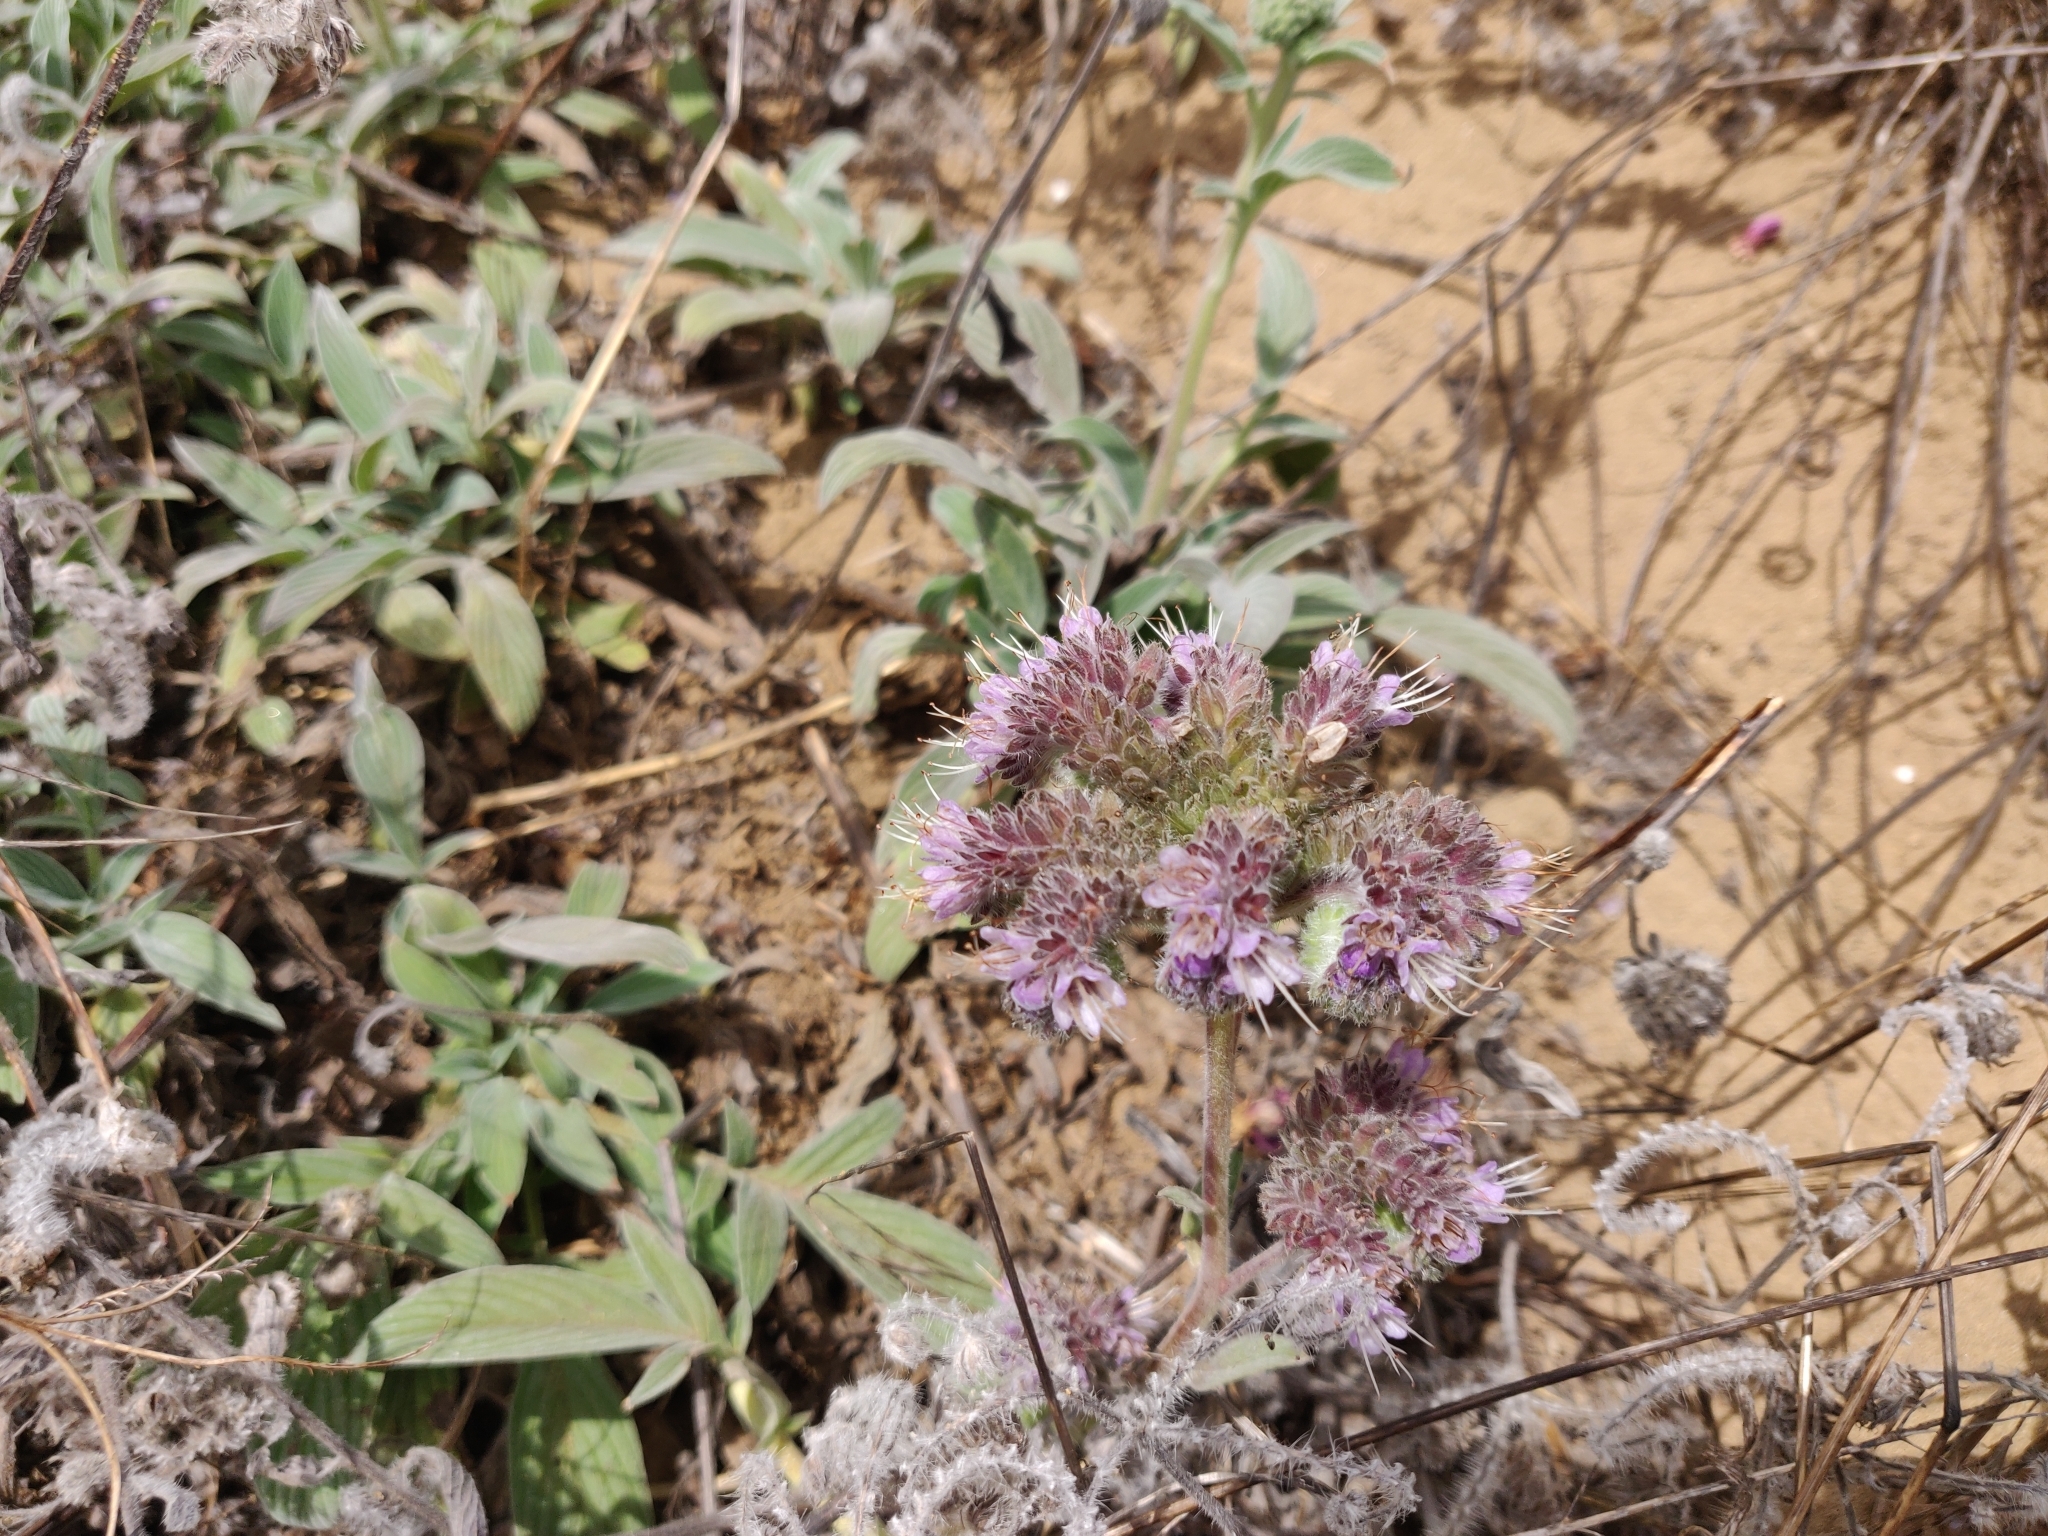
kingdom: Plantae
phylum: Tracheophyta
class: Magnoliopsida
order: Boraginales
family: Hydrophyllaceae
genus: Phacelia
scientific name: Phacelia californica
